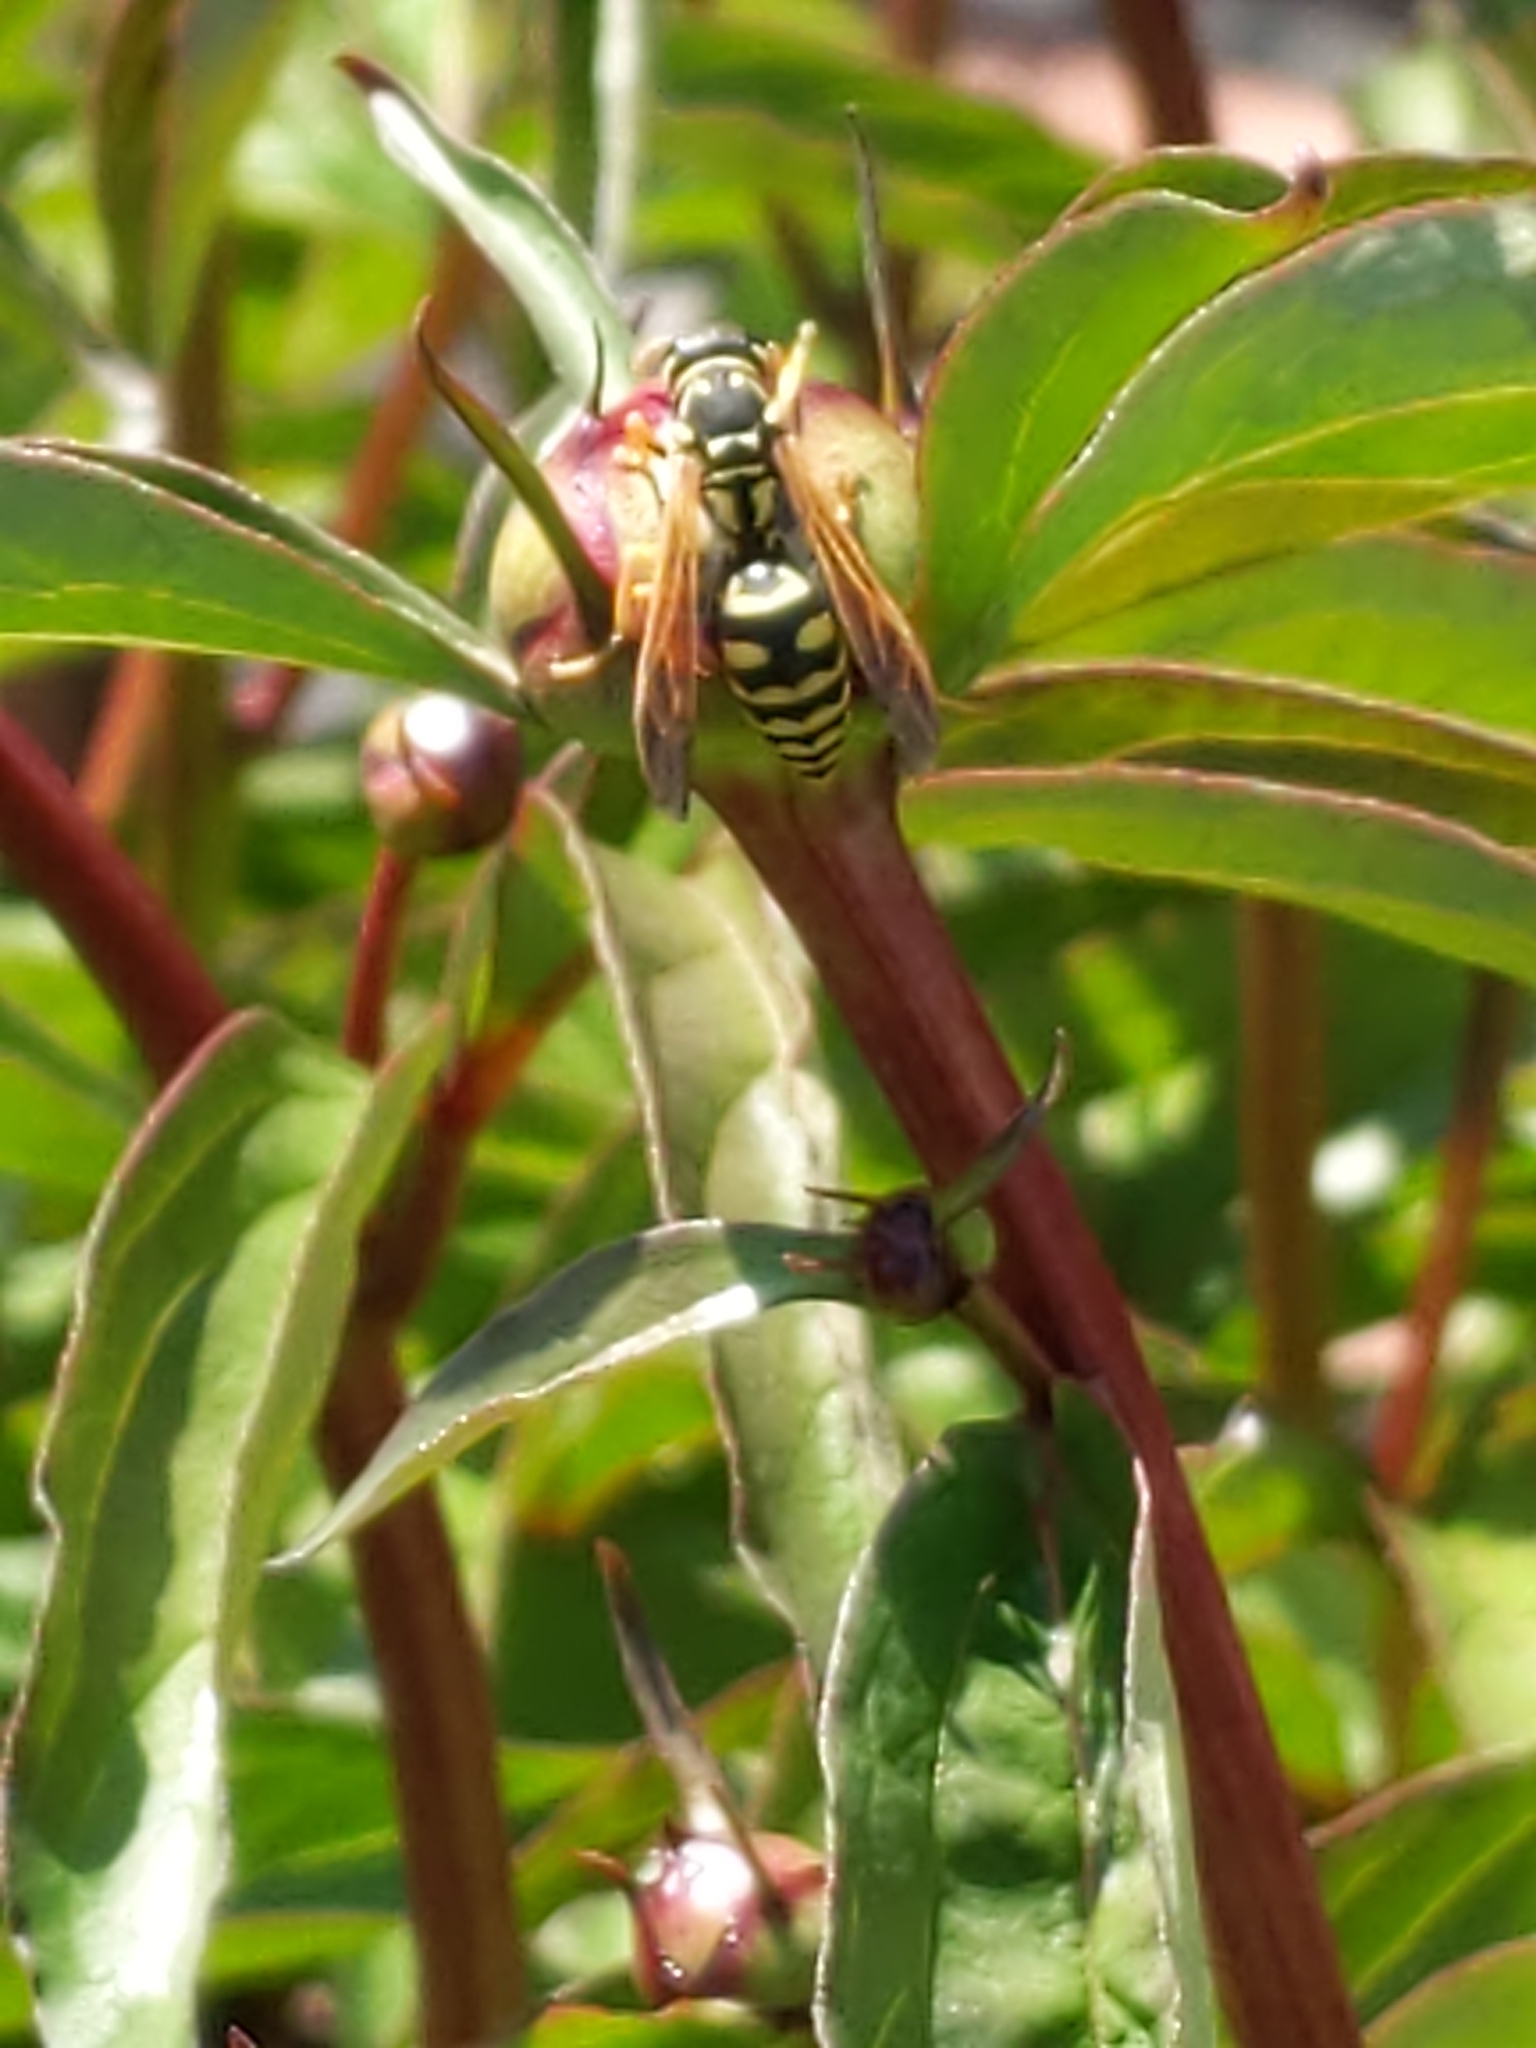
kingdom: Animalia
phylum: Arthropoda
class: Insecta
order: Hymenoptera
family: Eumenidae
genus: Polistes
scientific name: Polistes dominula
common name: Paper wasp
